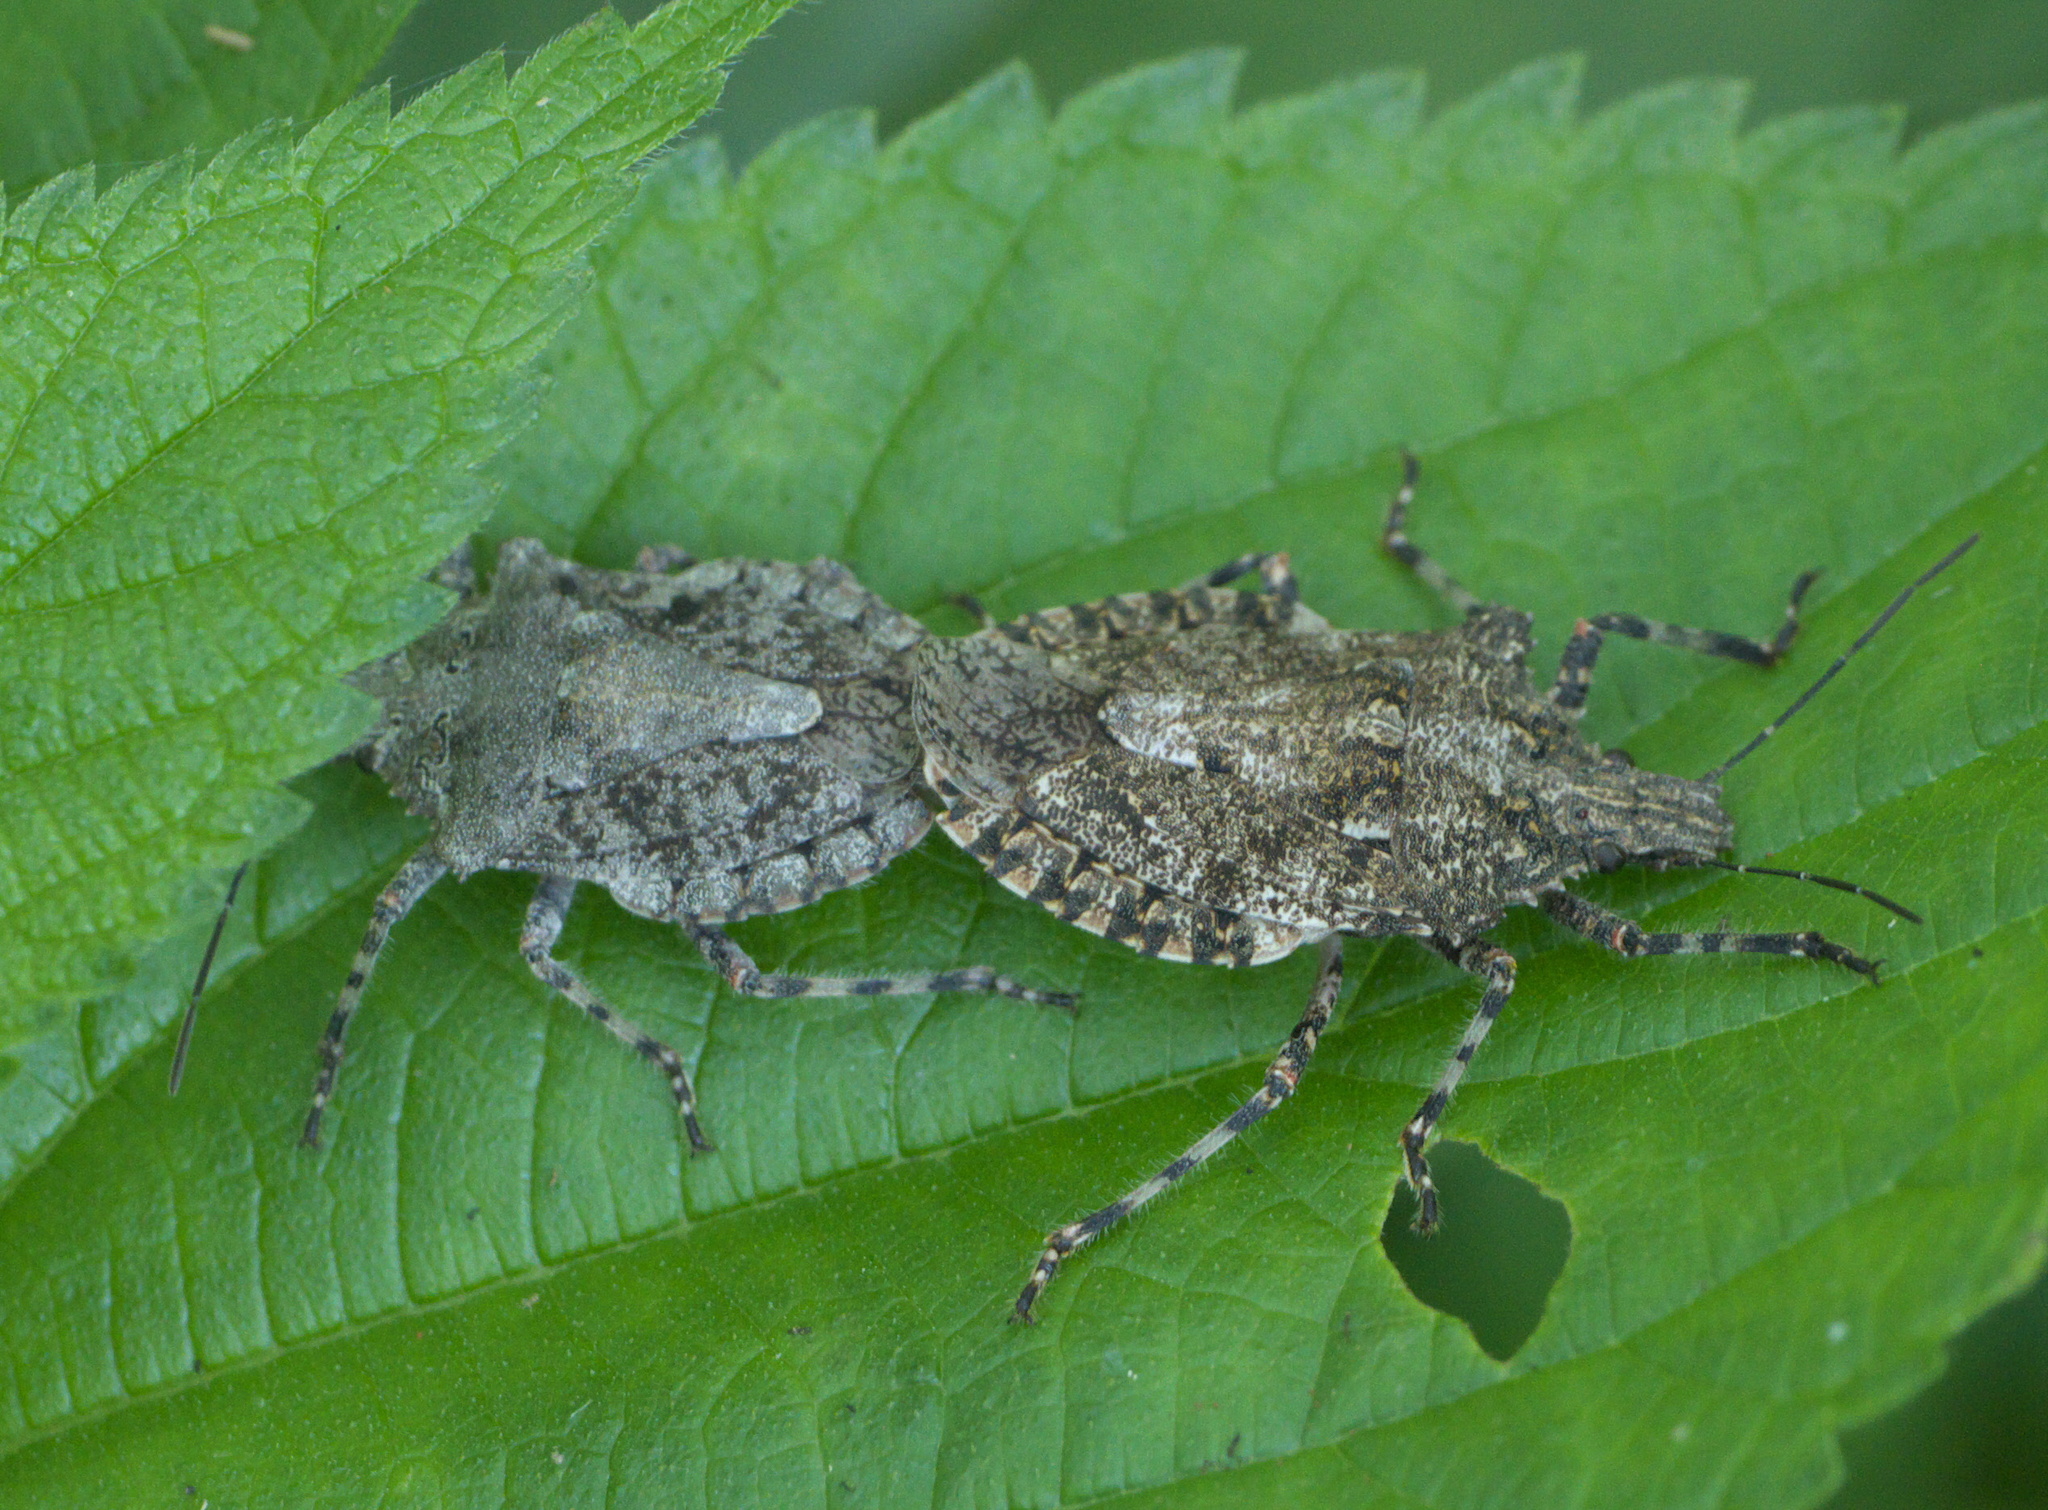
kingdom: Animalia
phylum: Arthropoda
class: Insecta
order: Hemiptera
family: Pentatomidae
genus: Brochymena
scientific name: Brochymena arborea
